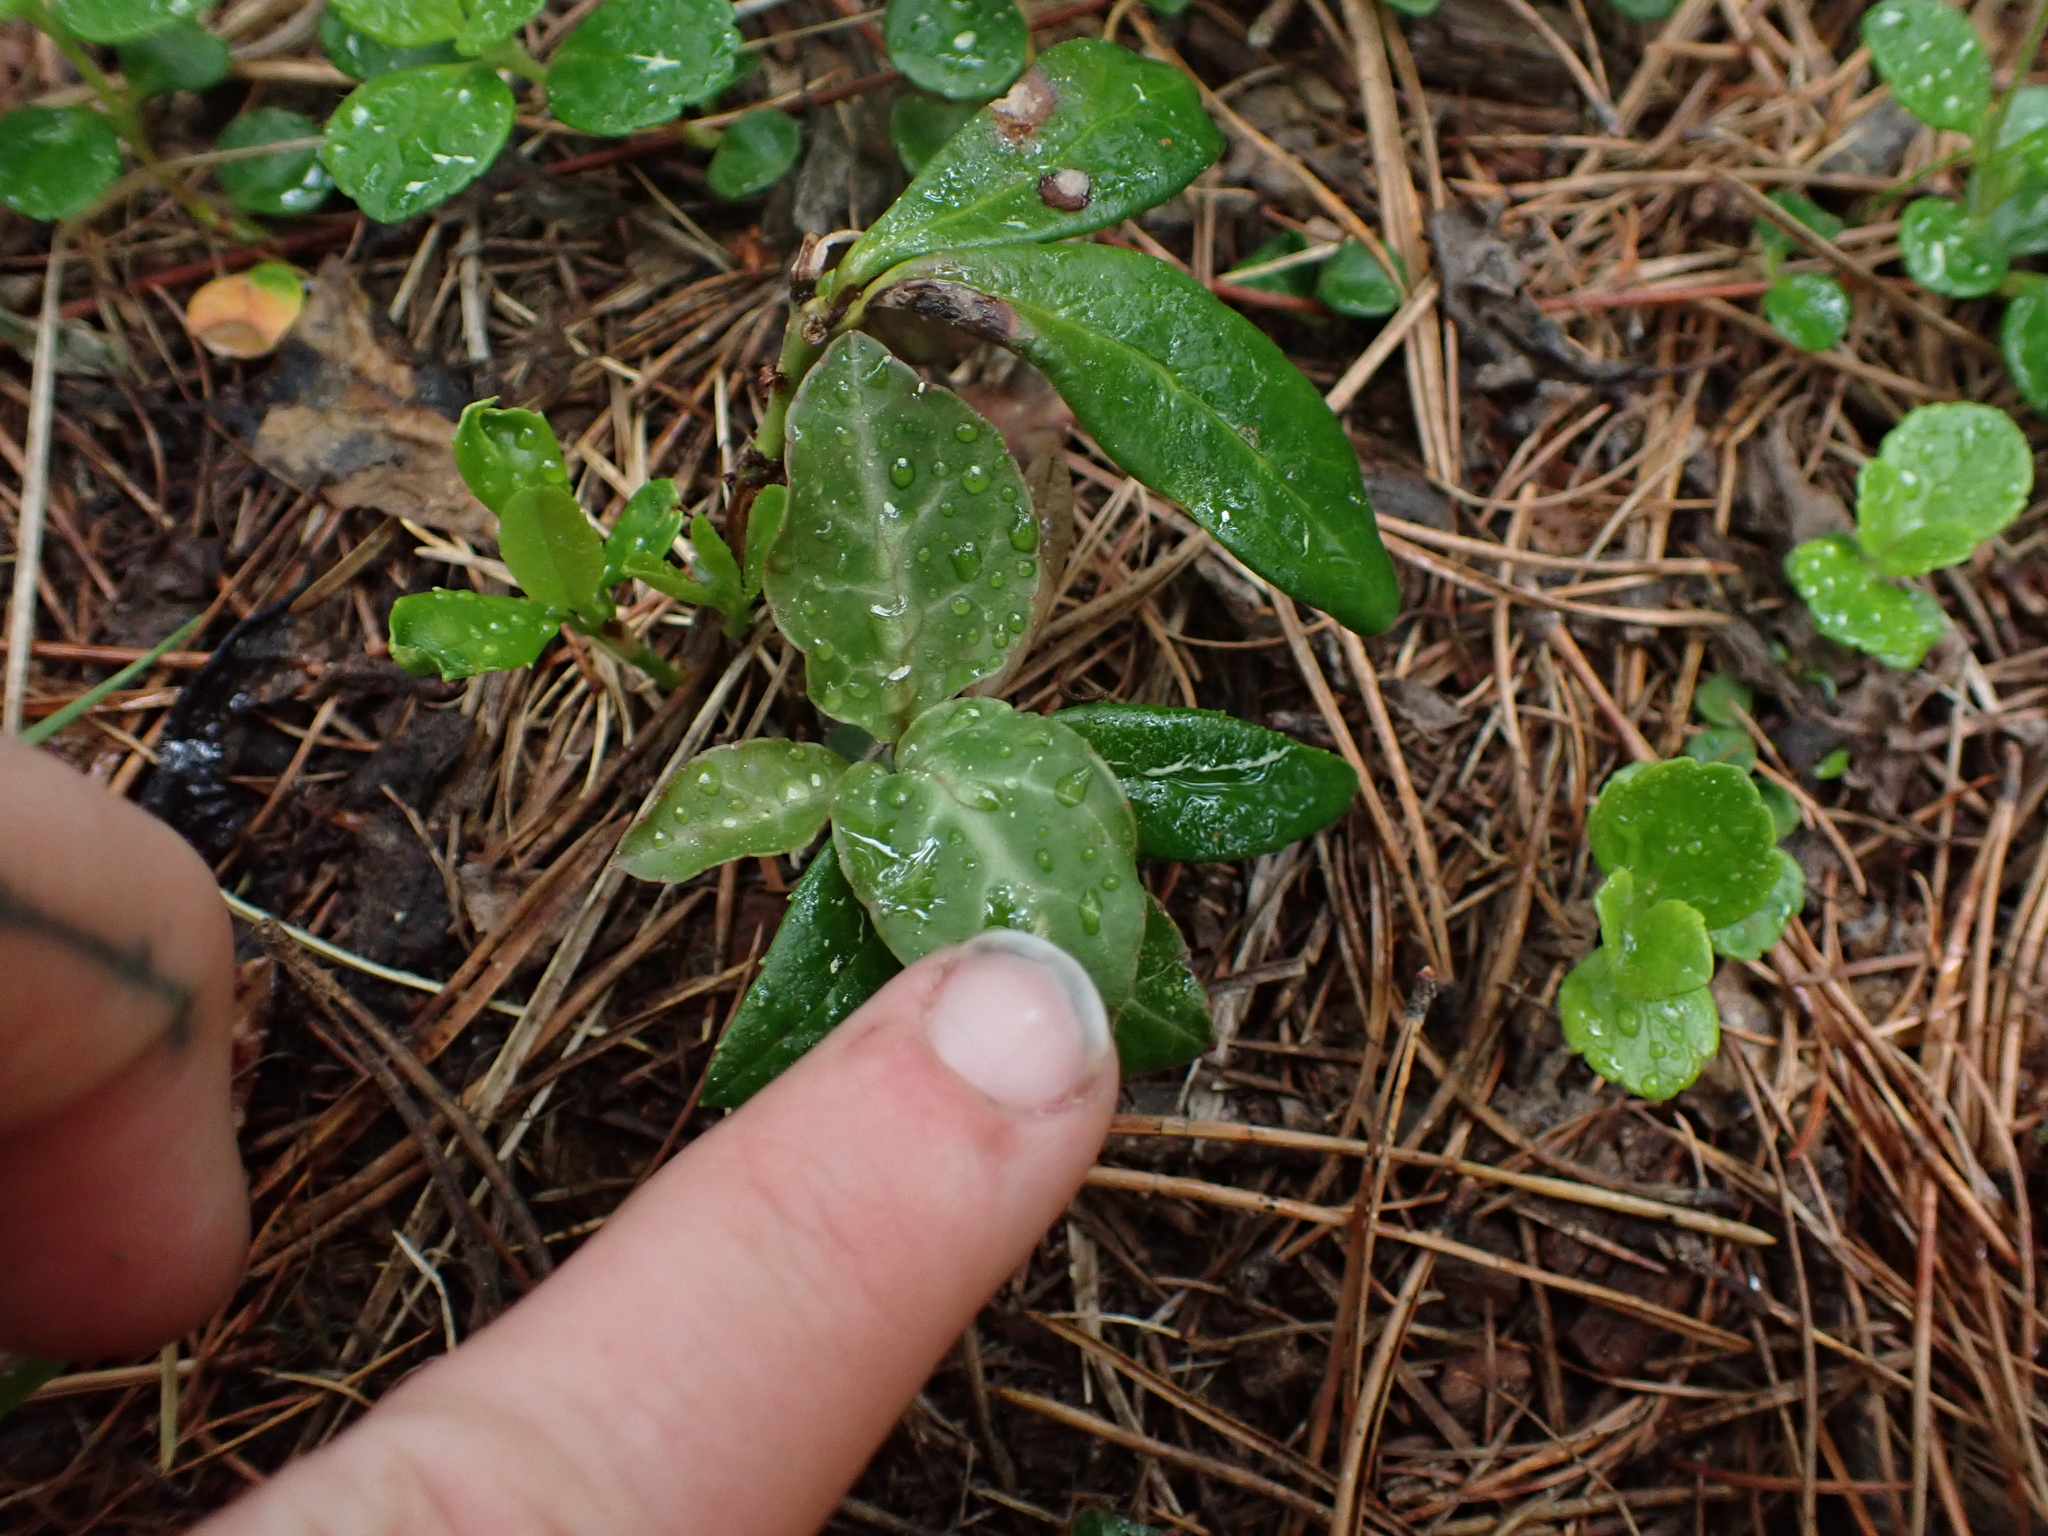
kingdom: Plantae
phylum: Tracheophyta
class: Magnoliopsida
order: Ericales
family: Ericaceae
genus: Pyrola
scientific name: Pyrola picta
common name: White-vein wintergreen
